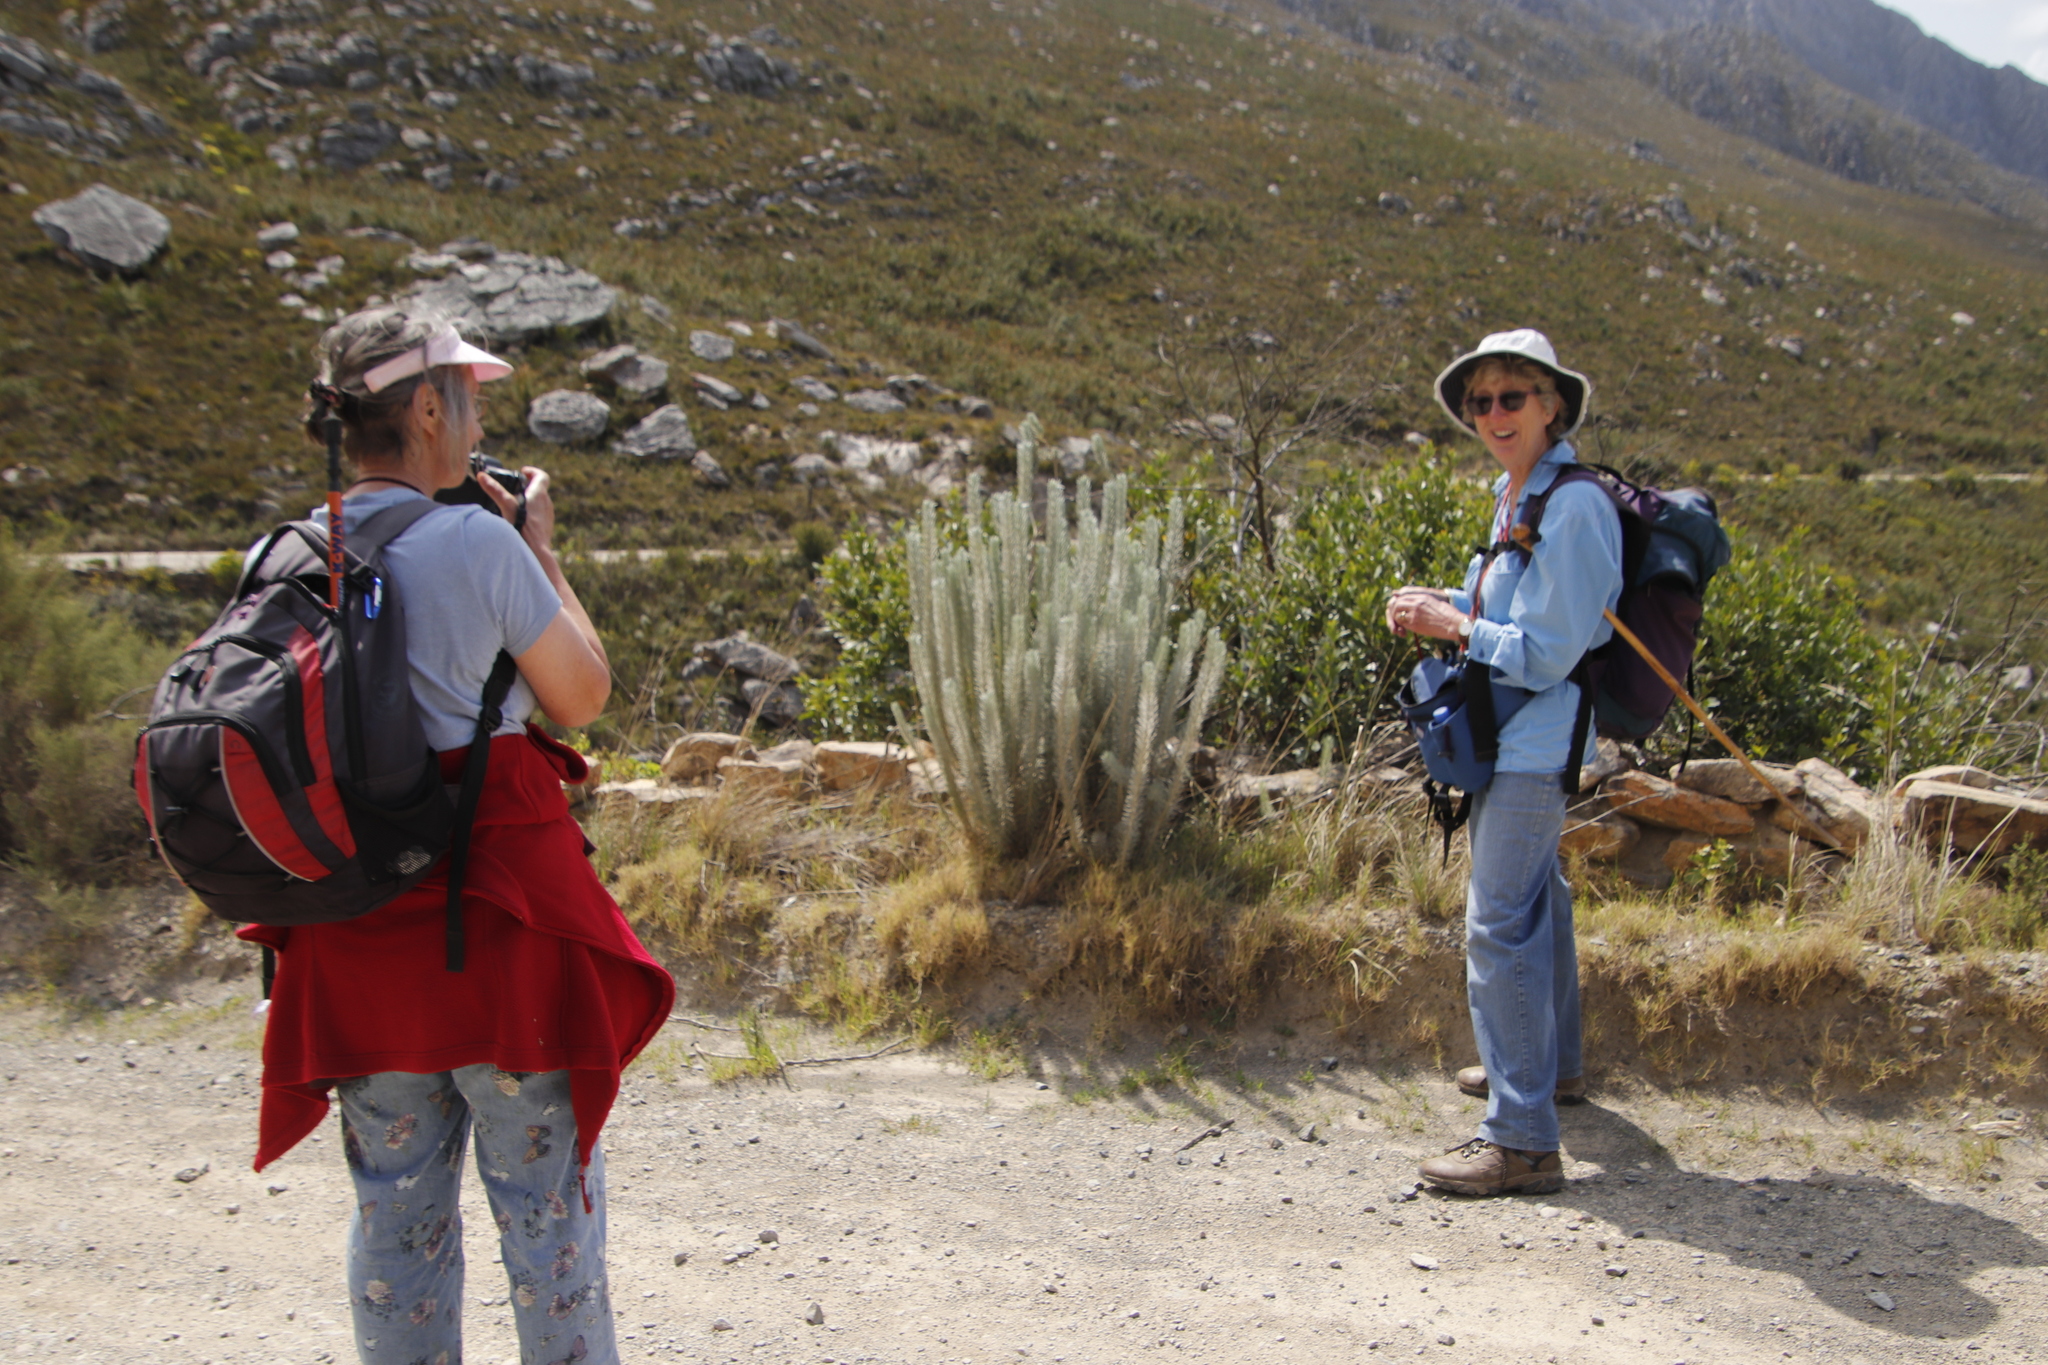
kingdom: Plantae
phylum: Tracheophyta
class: Magnoliopsida
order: Asterales
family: Asteraceae
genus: Athanasia
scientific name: Athanasia tomentosa
